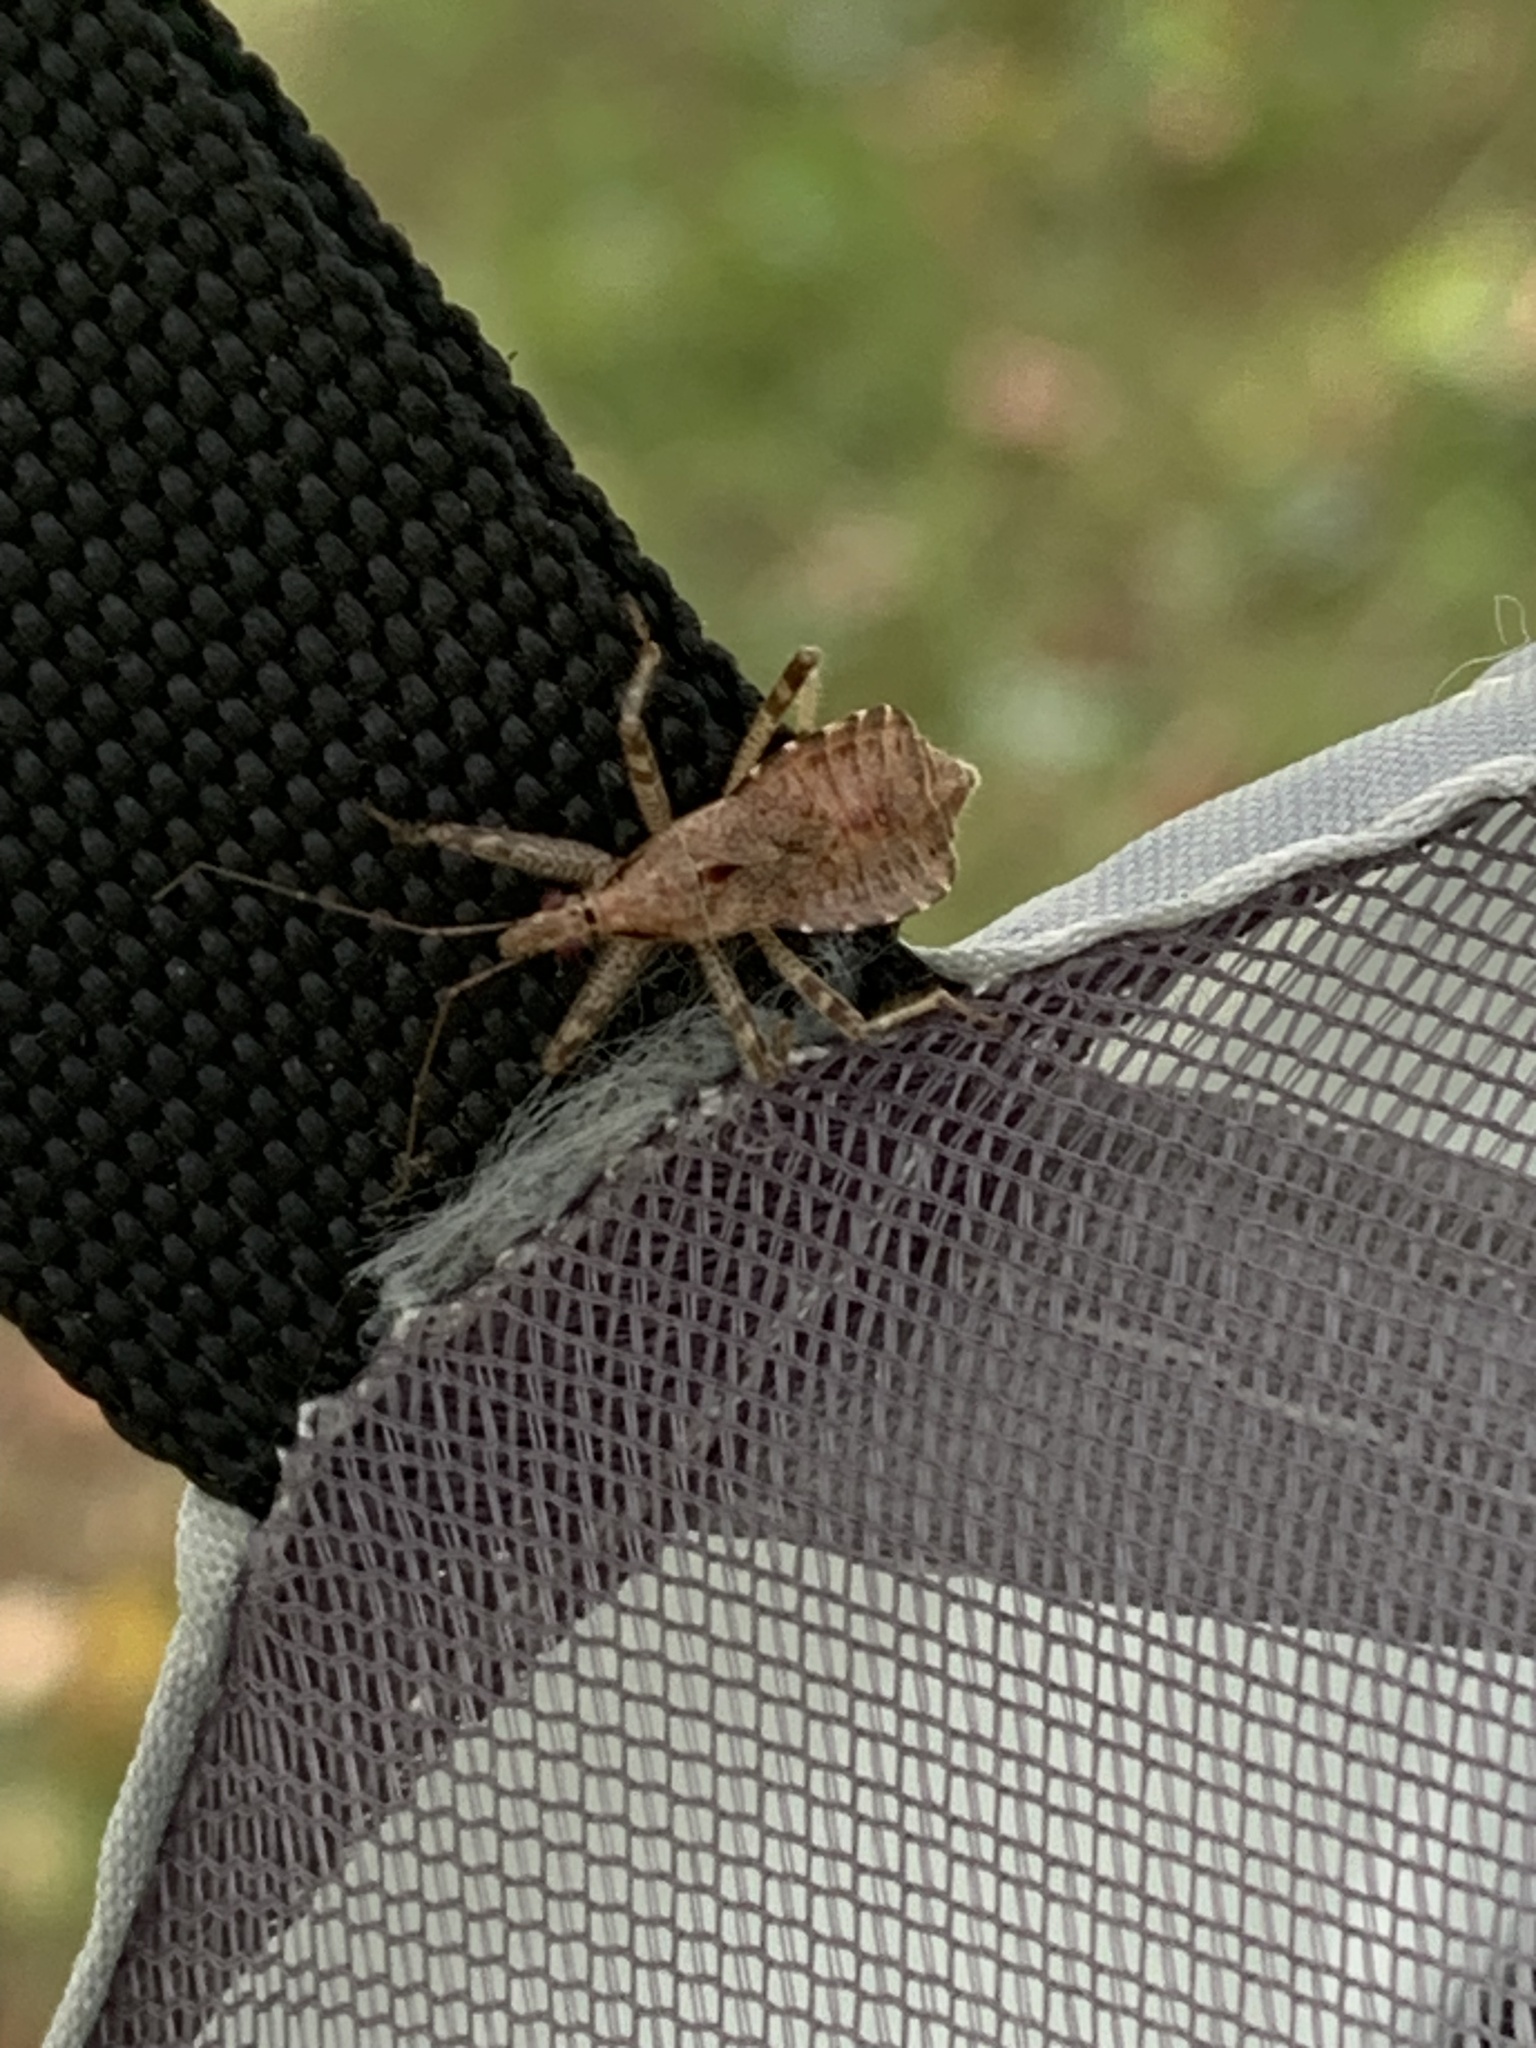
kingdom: Animalia
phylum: Arthropoda
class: Insecta
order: Hemiptera
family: Nabidae
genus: Himacerus
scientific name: Himacerus apterus
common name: Tree damsel bug
